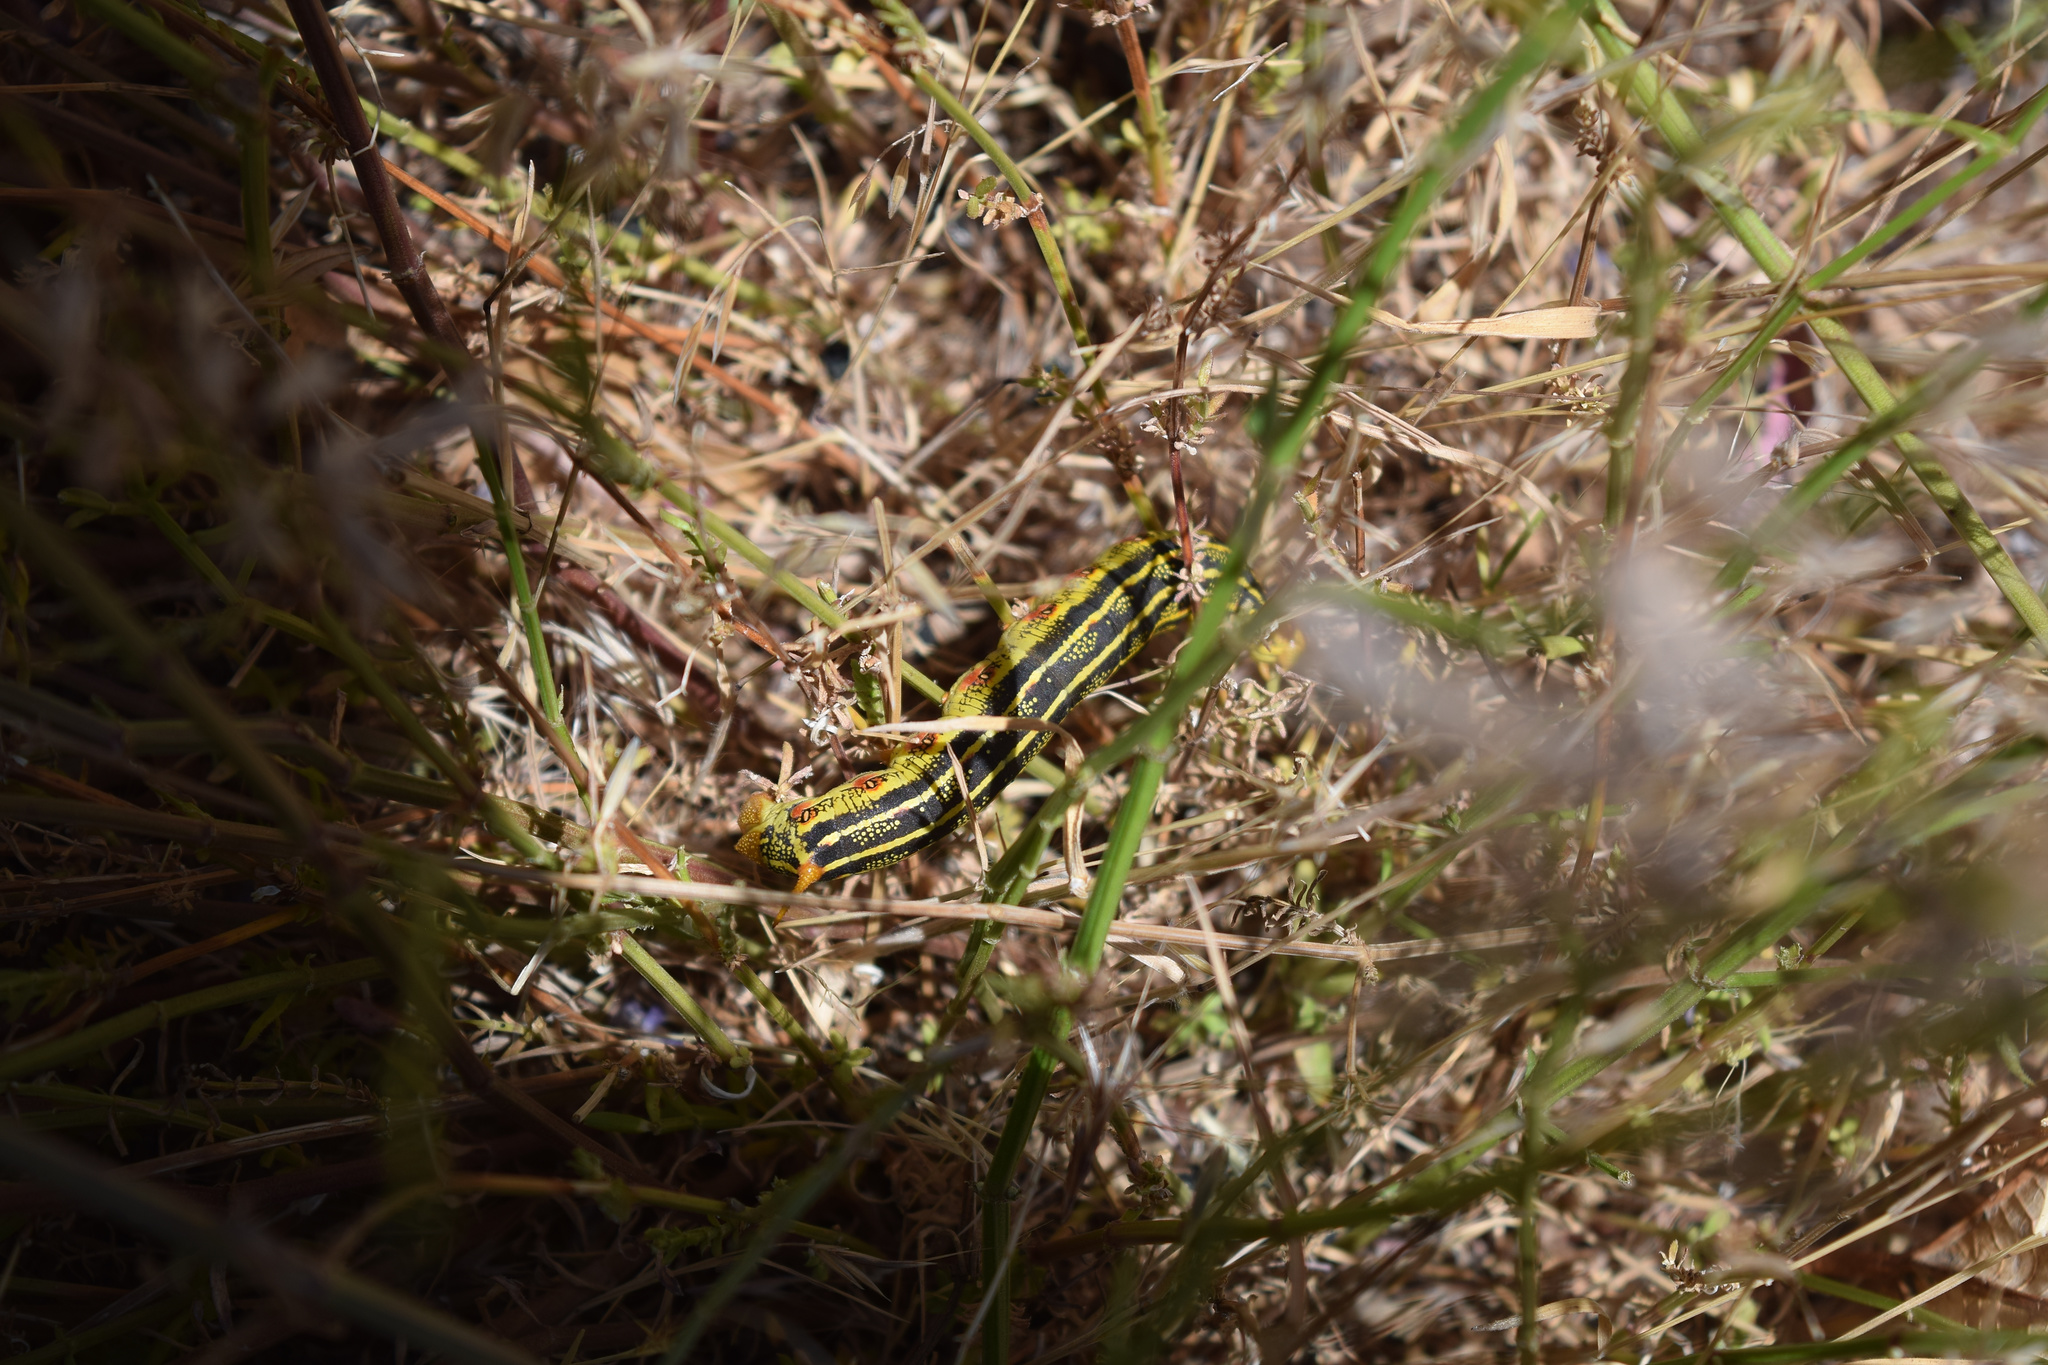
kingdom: Animalia
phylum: Arthropoda
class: Insecta
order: Lepidoptera
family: Sphingidae
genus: Hyles
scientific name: Hyles lineata
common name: White-lined sphinx
